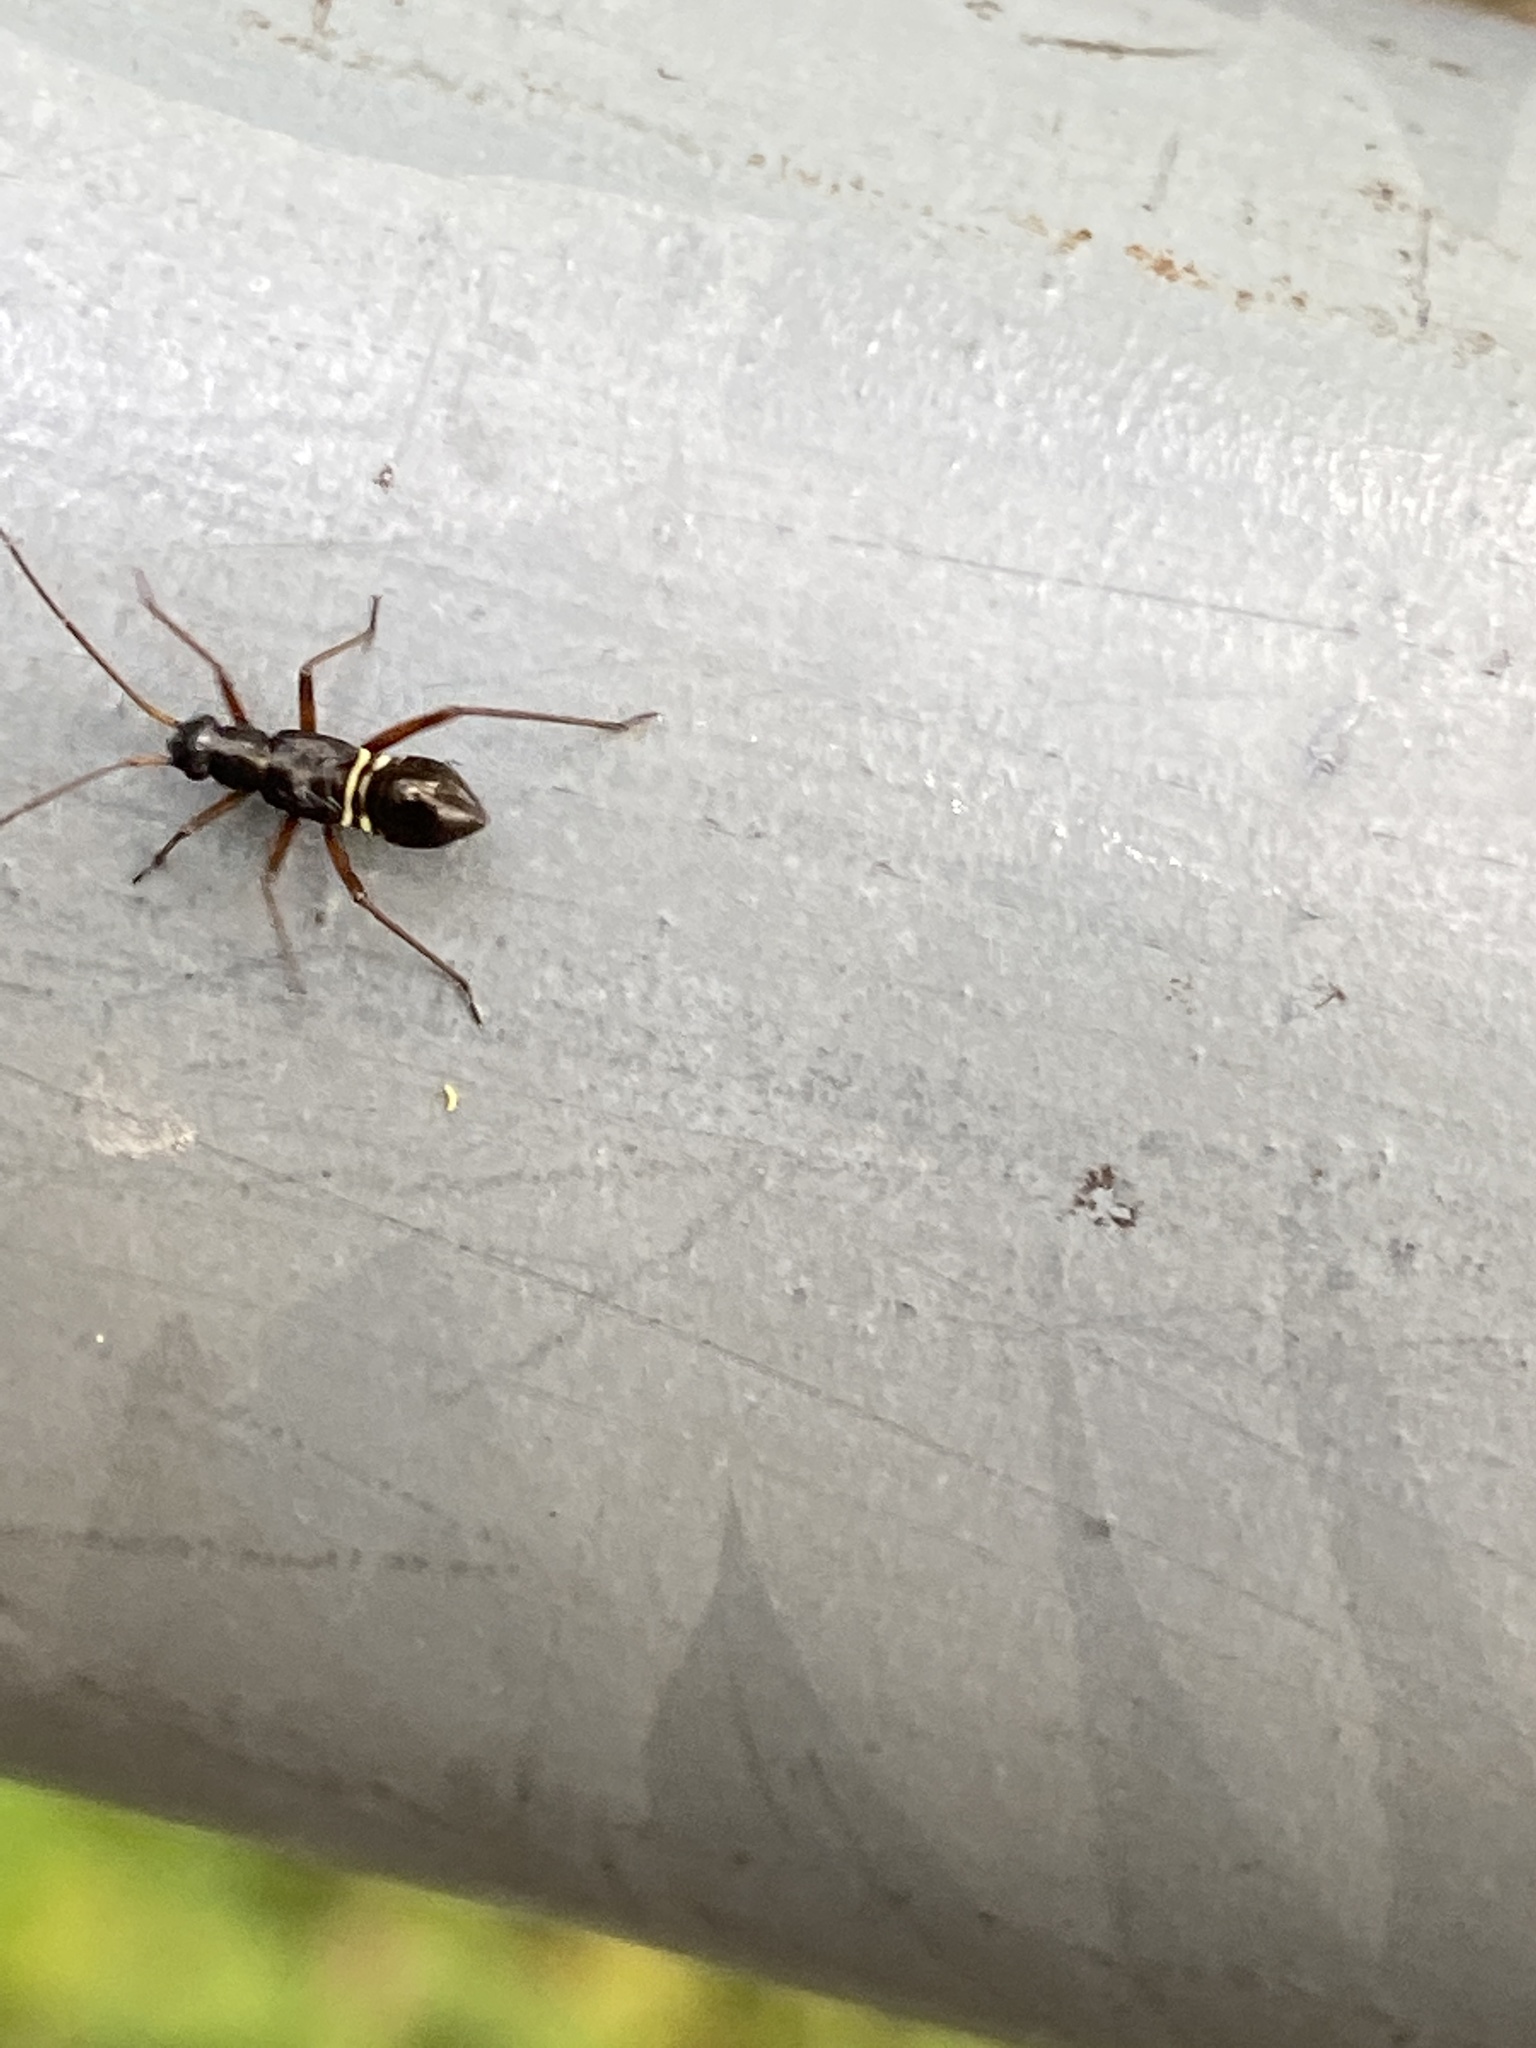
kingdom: Animalia
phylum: Arthropoda
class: Insecta
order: Hemiptera
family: Miridae
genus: Miris
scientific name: Miris striatus
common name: Fine streaked bugkin
